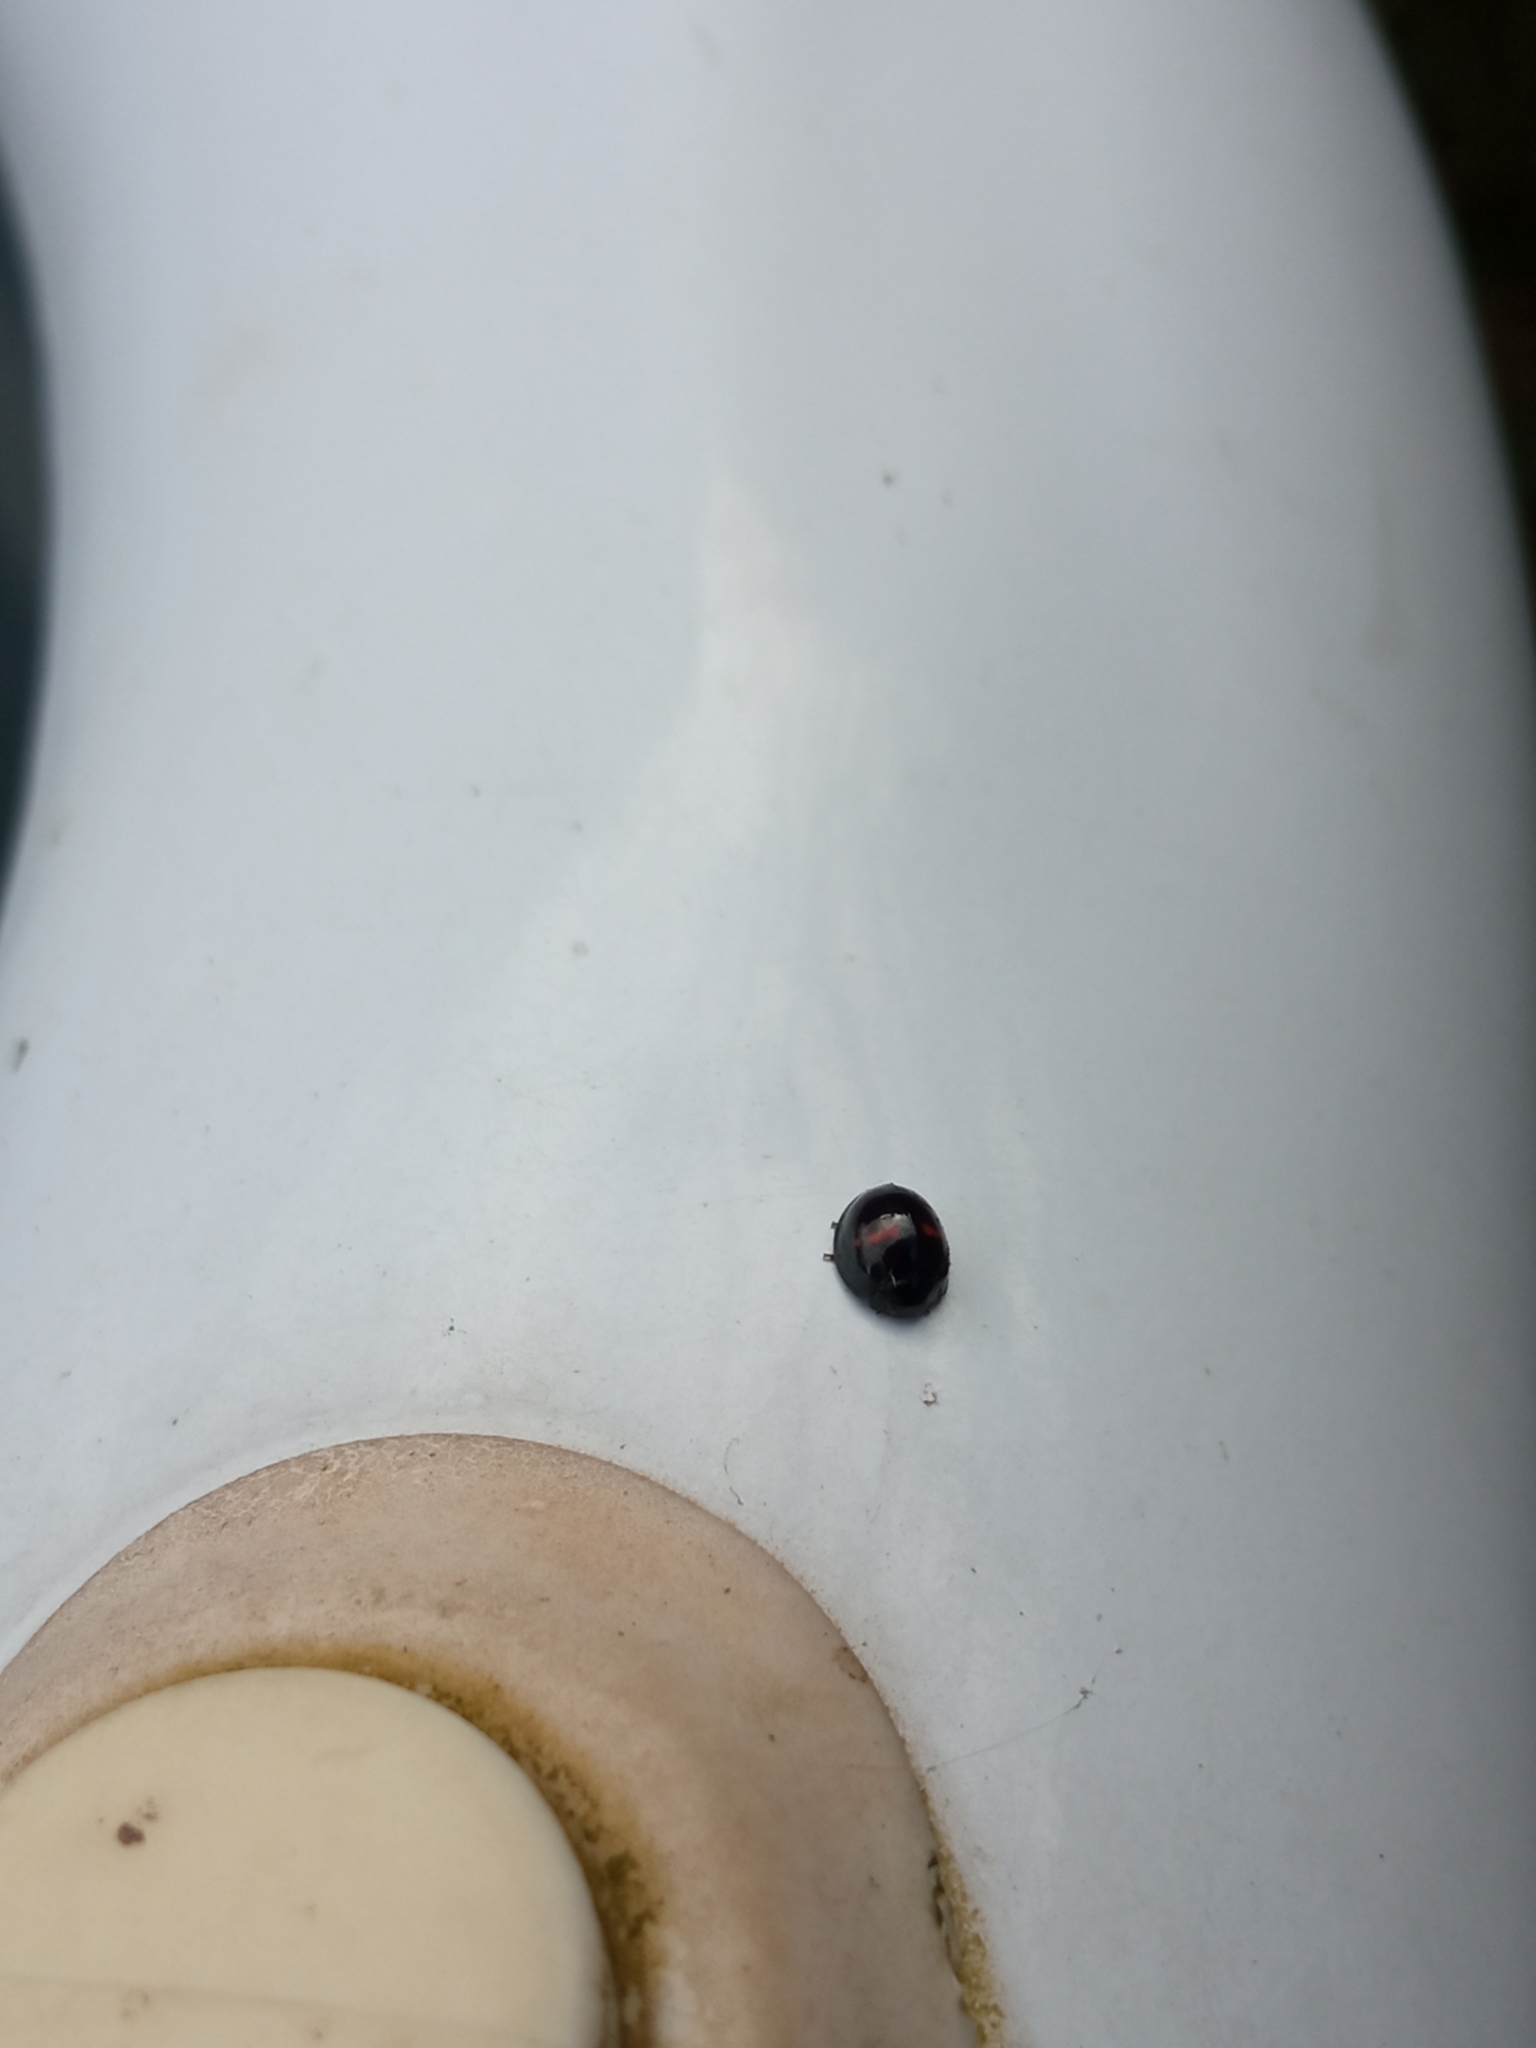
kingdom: Animalia
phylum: Arthropoda
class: Insecta
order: Coleoptera
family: Coccinellidae
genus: Chilocorus
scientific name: Chilocorus bipustulatus
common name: Heather ladybird
